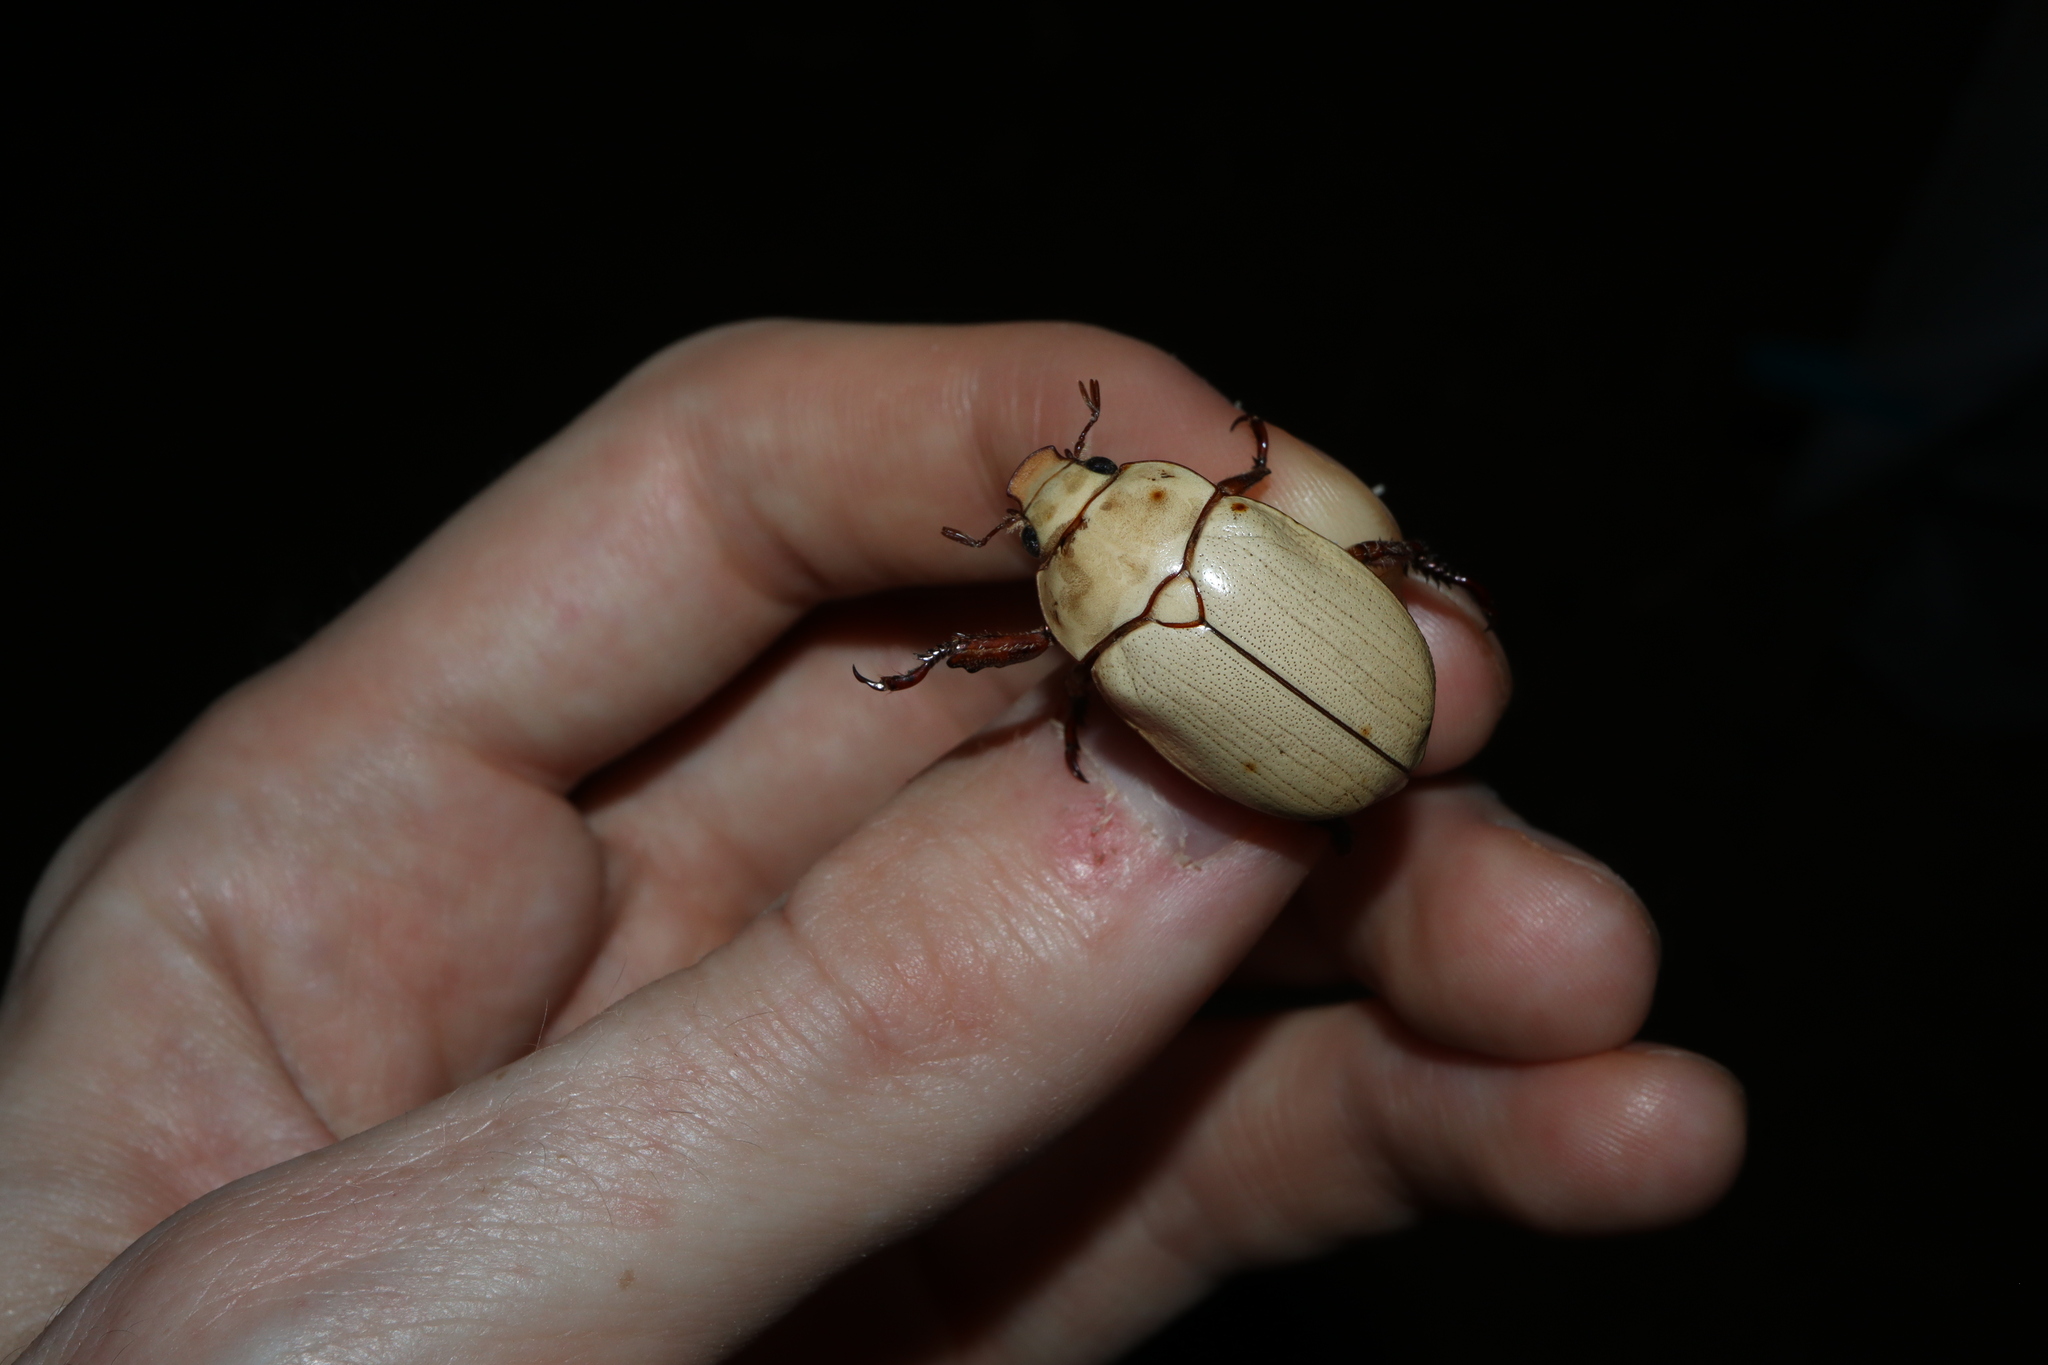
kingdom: Animalia
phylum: Arthropoda
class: Insecta
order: Coleoptera
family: Scarabaeidae
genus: Anoplognathus
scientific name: Anoplognathus macleayi
